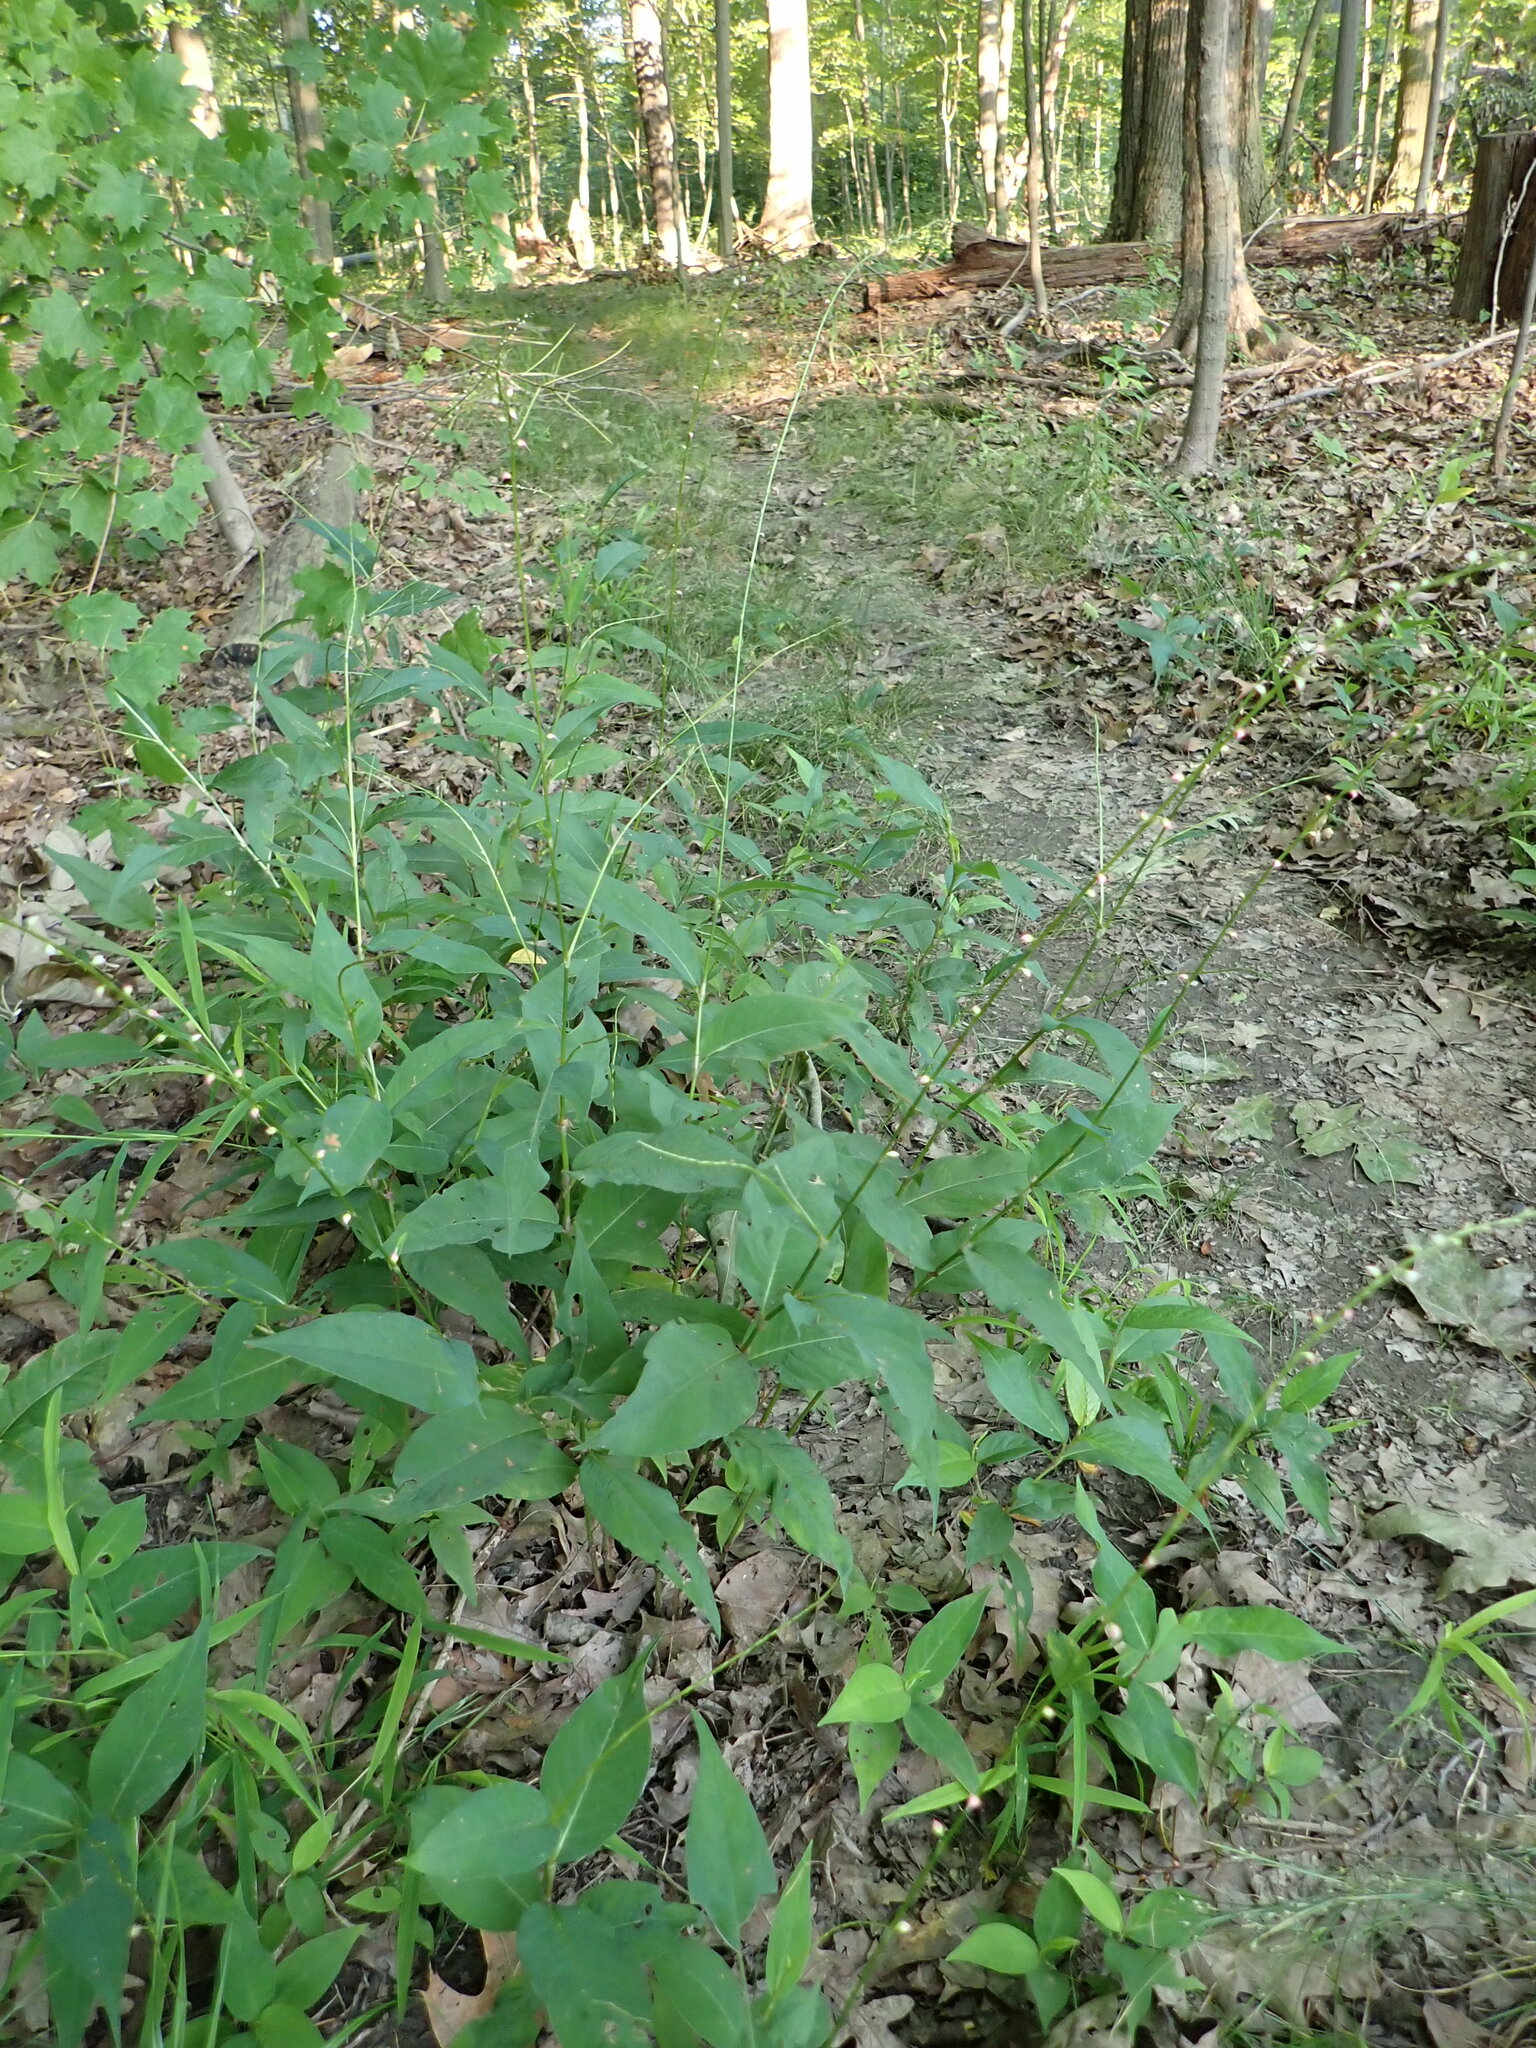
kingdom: Plantae
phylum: Tracheophyta
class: Magnoliopsida
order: Caryophyllales
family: Polygonaceae
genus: Persicaria
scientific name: Persicaria virginiana
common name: Jumpseed
